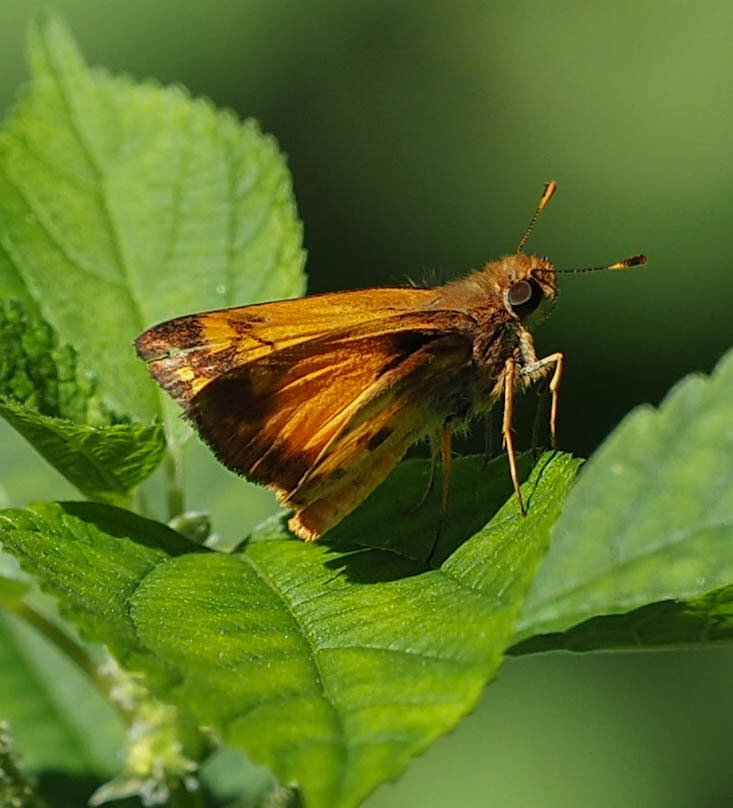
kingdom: Animalia
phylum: Arthropoda
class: Insecta
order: Lepidoptera
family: Hesperiidae
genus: Lon
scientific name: Lon zabulon
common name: Zabulon skipper
